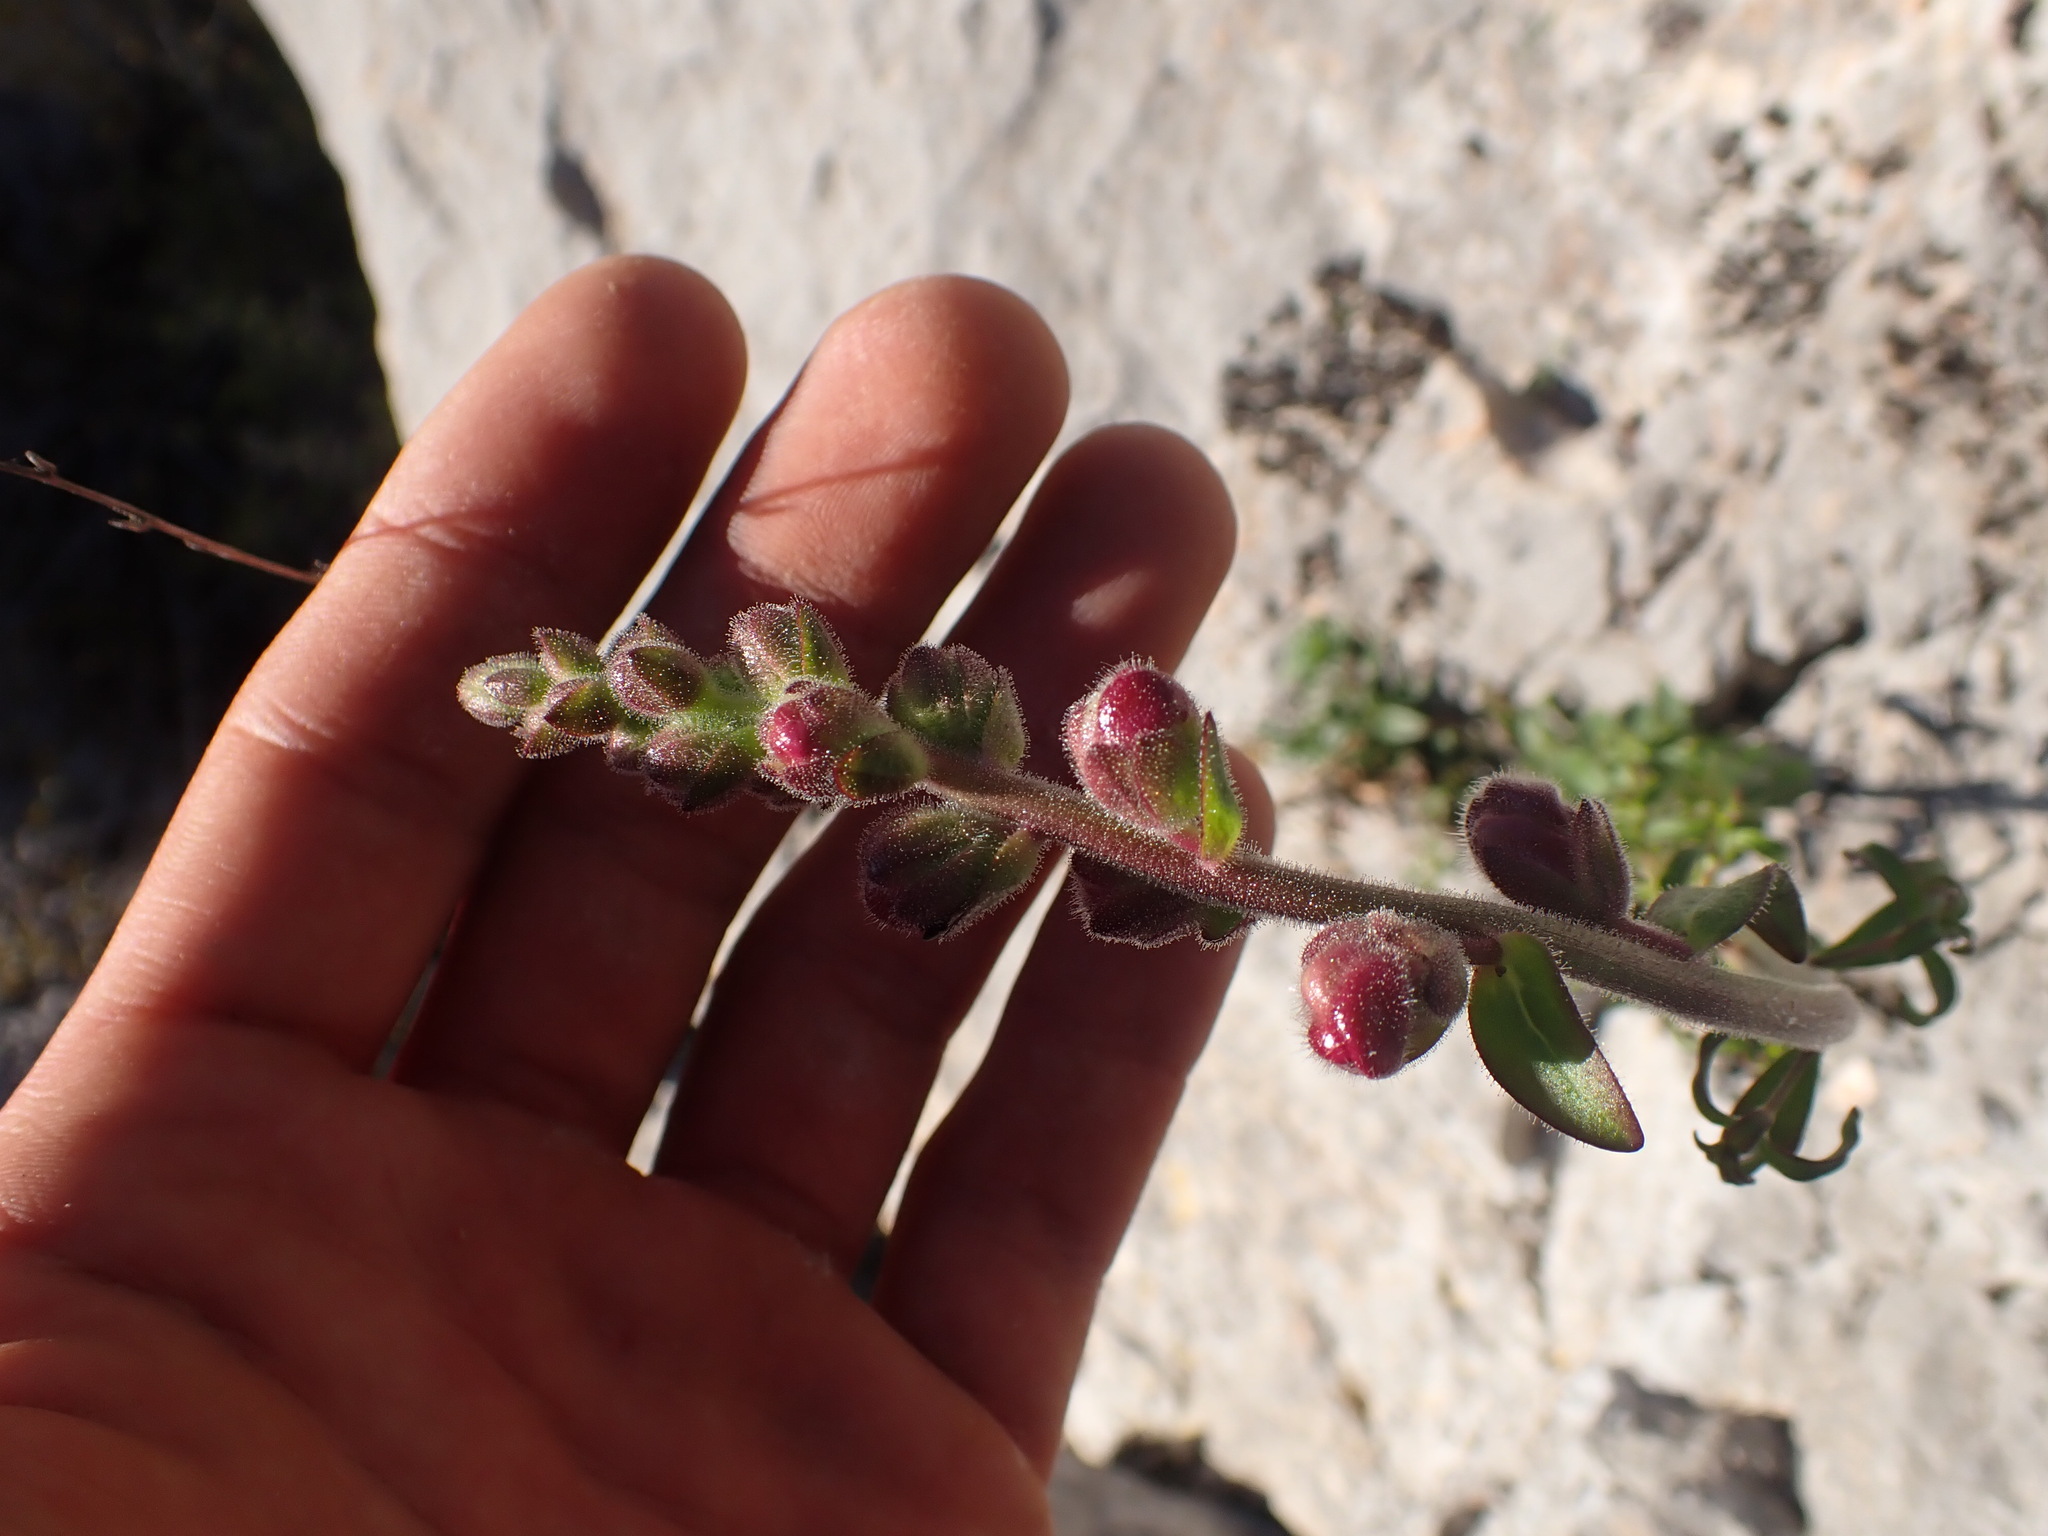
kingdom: Plantae
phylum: Tracheophyta
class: Magnoliopsida
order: Lamiales
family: Plantaginaceae
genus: Antirrhinum
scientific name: Antirrhinum majus
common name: Snapdragon
